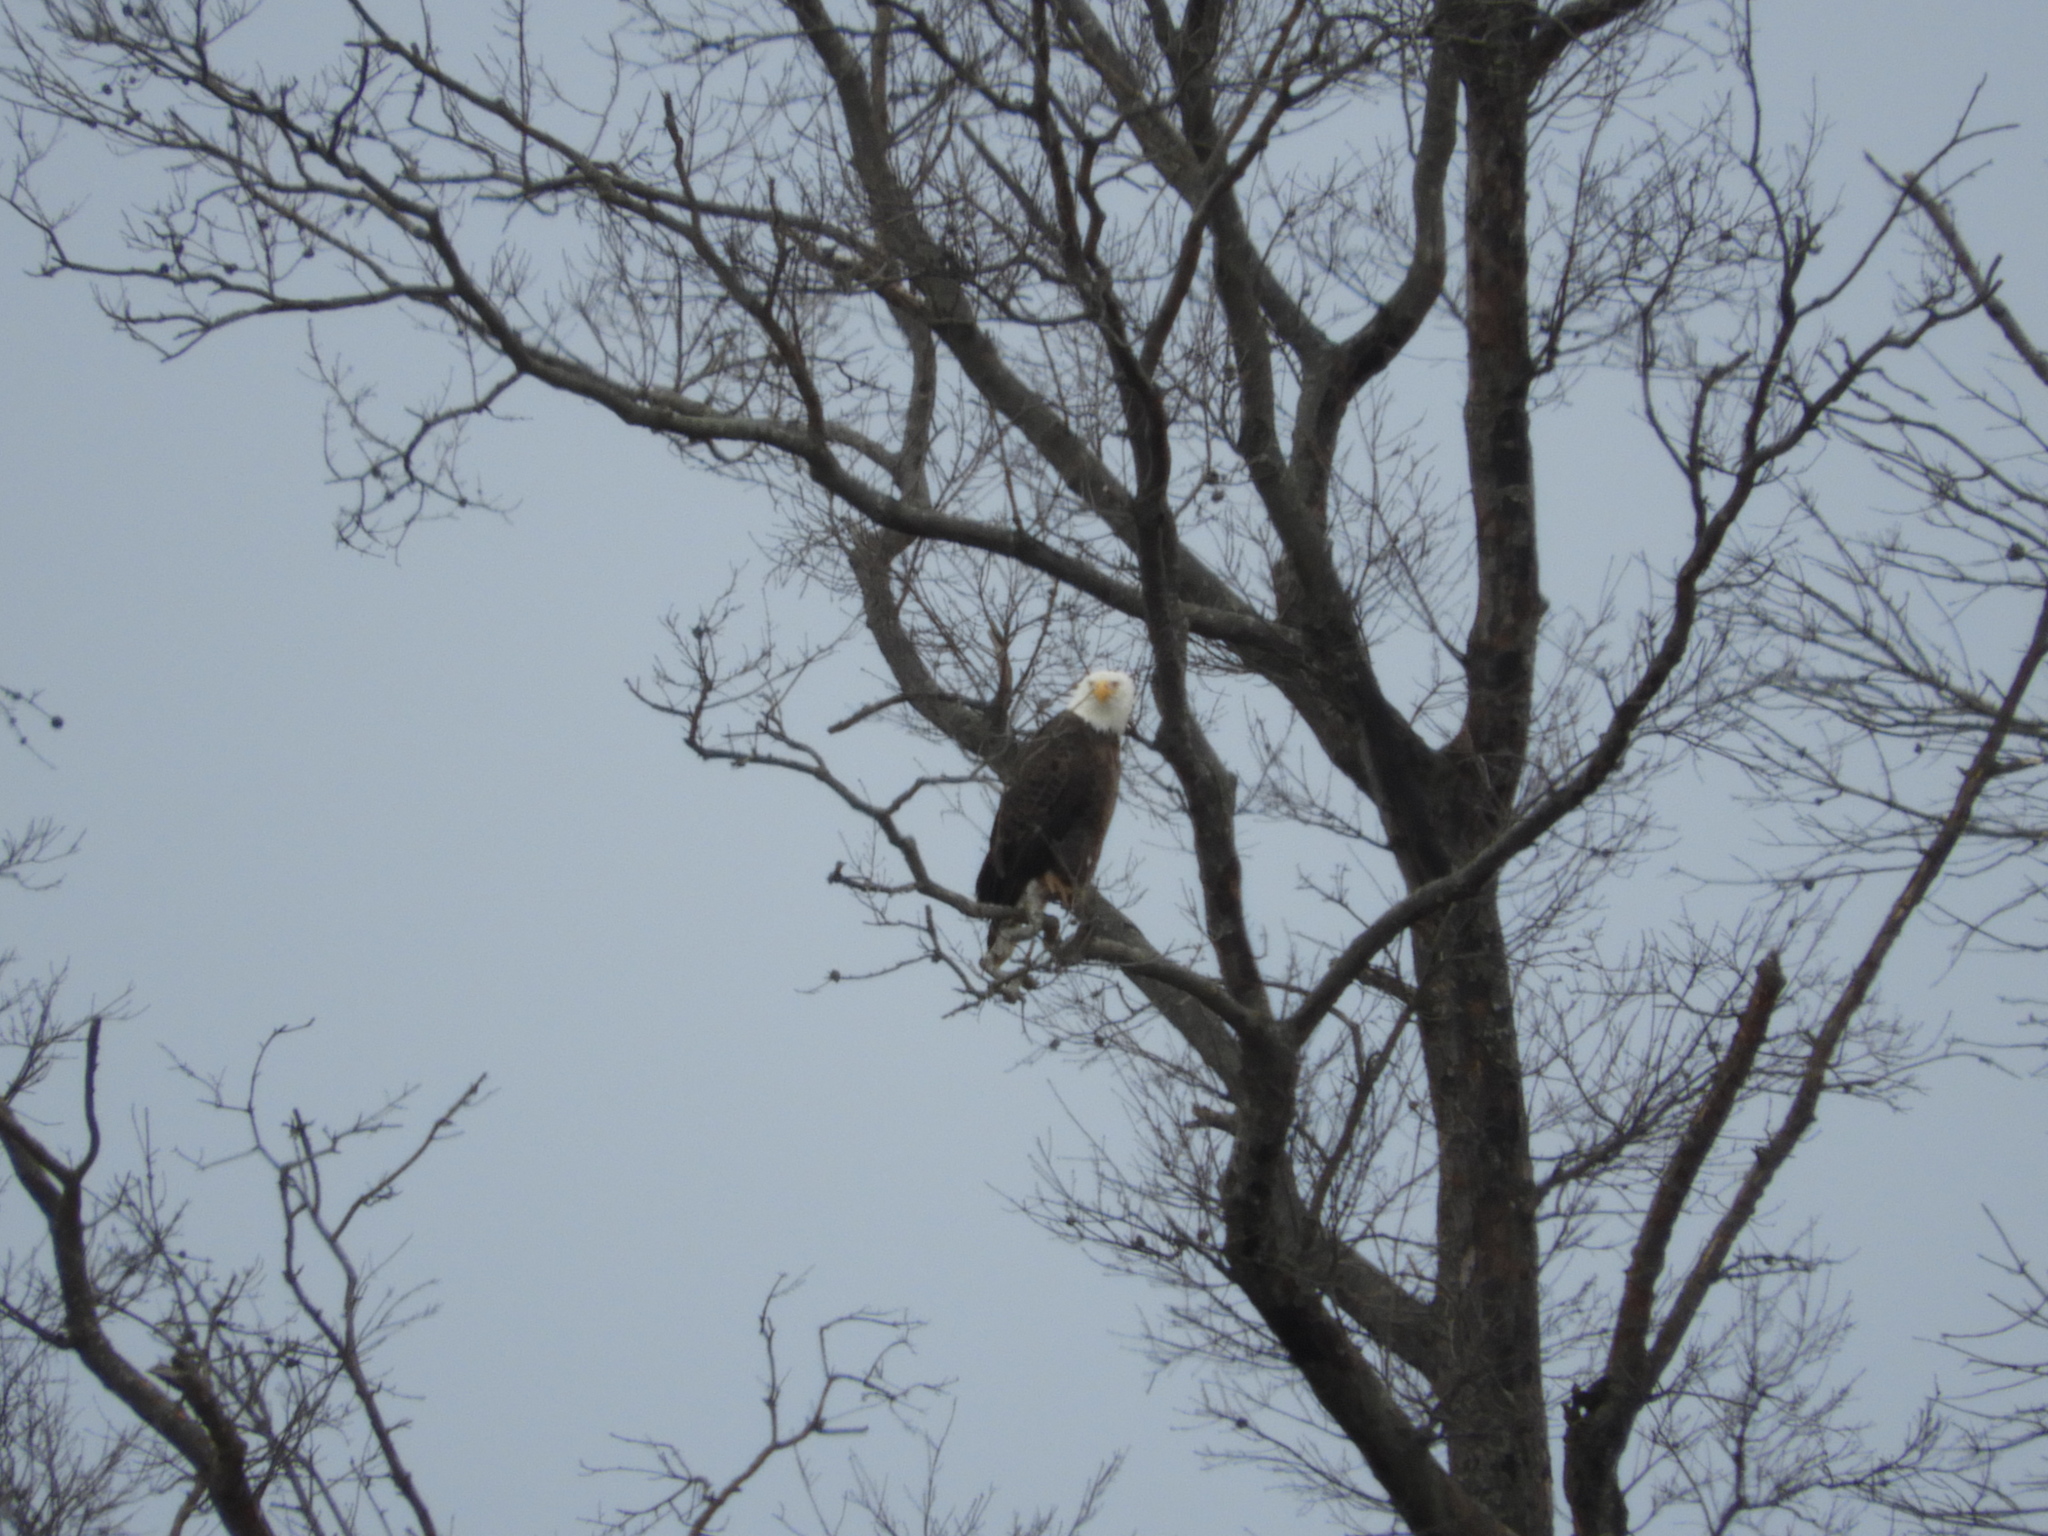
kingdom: Animalia
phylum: Chordata
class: Aves
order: Accipitriformes
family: Accipitridae
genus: Haliaeetus
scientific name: Haliaeetus leucocephalus
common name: Bald eagle
